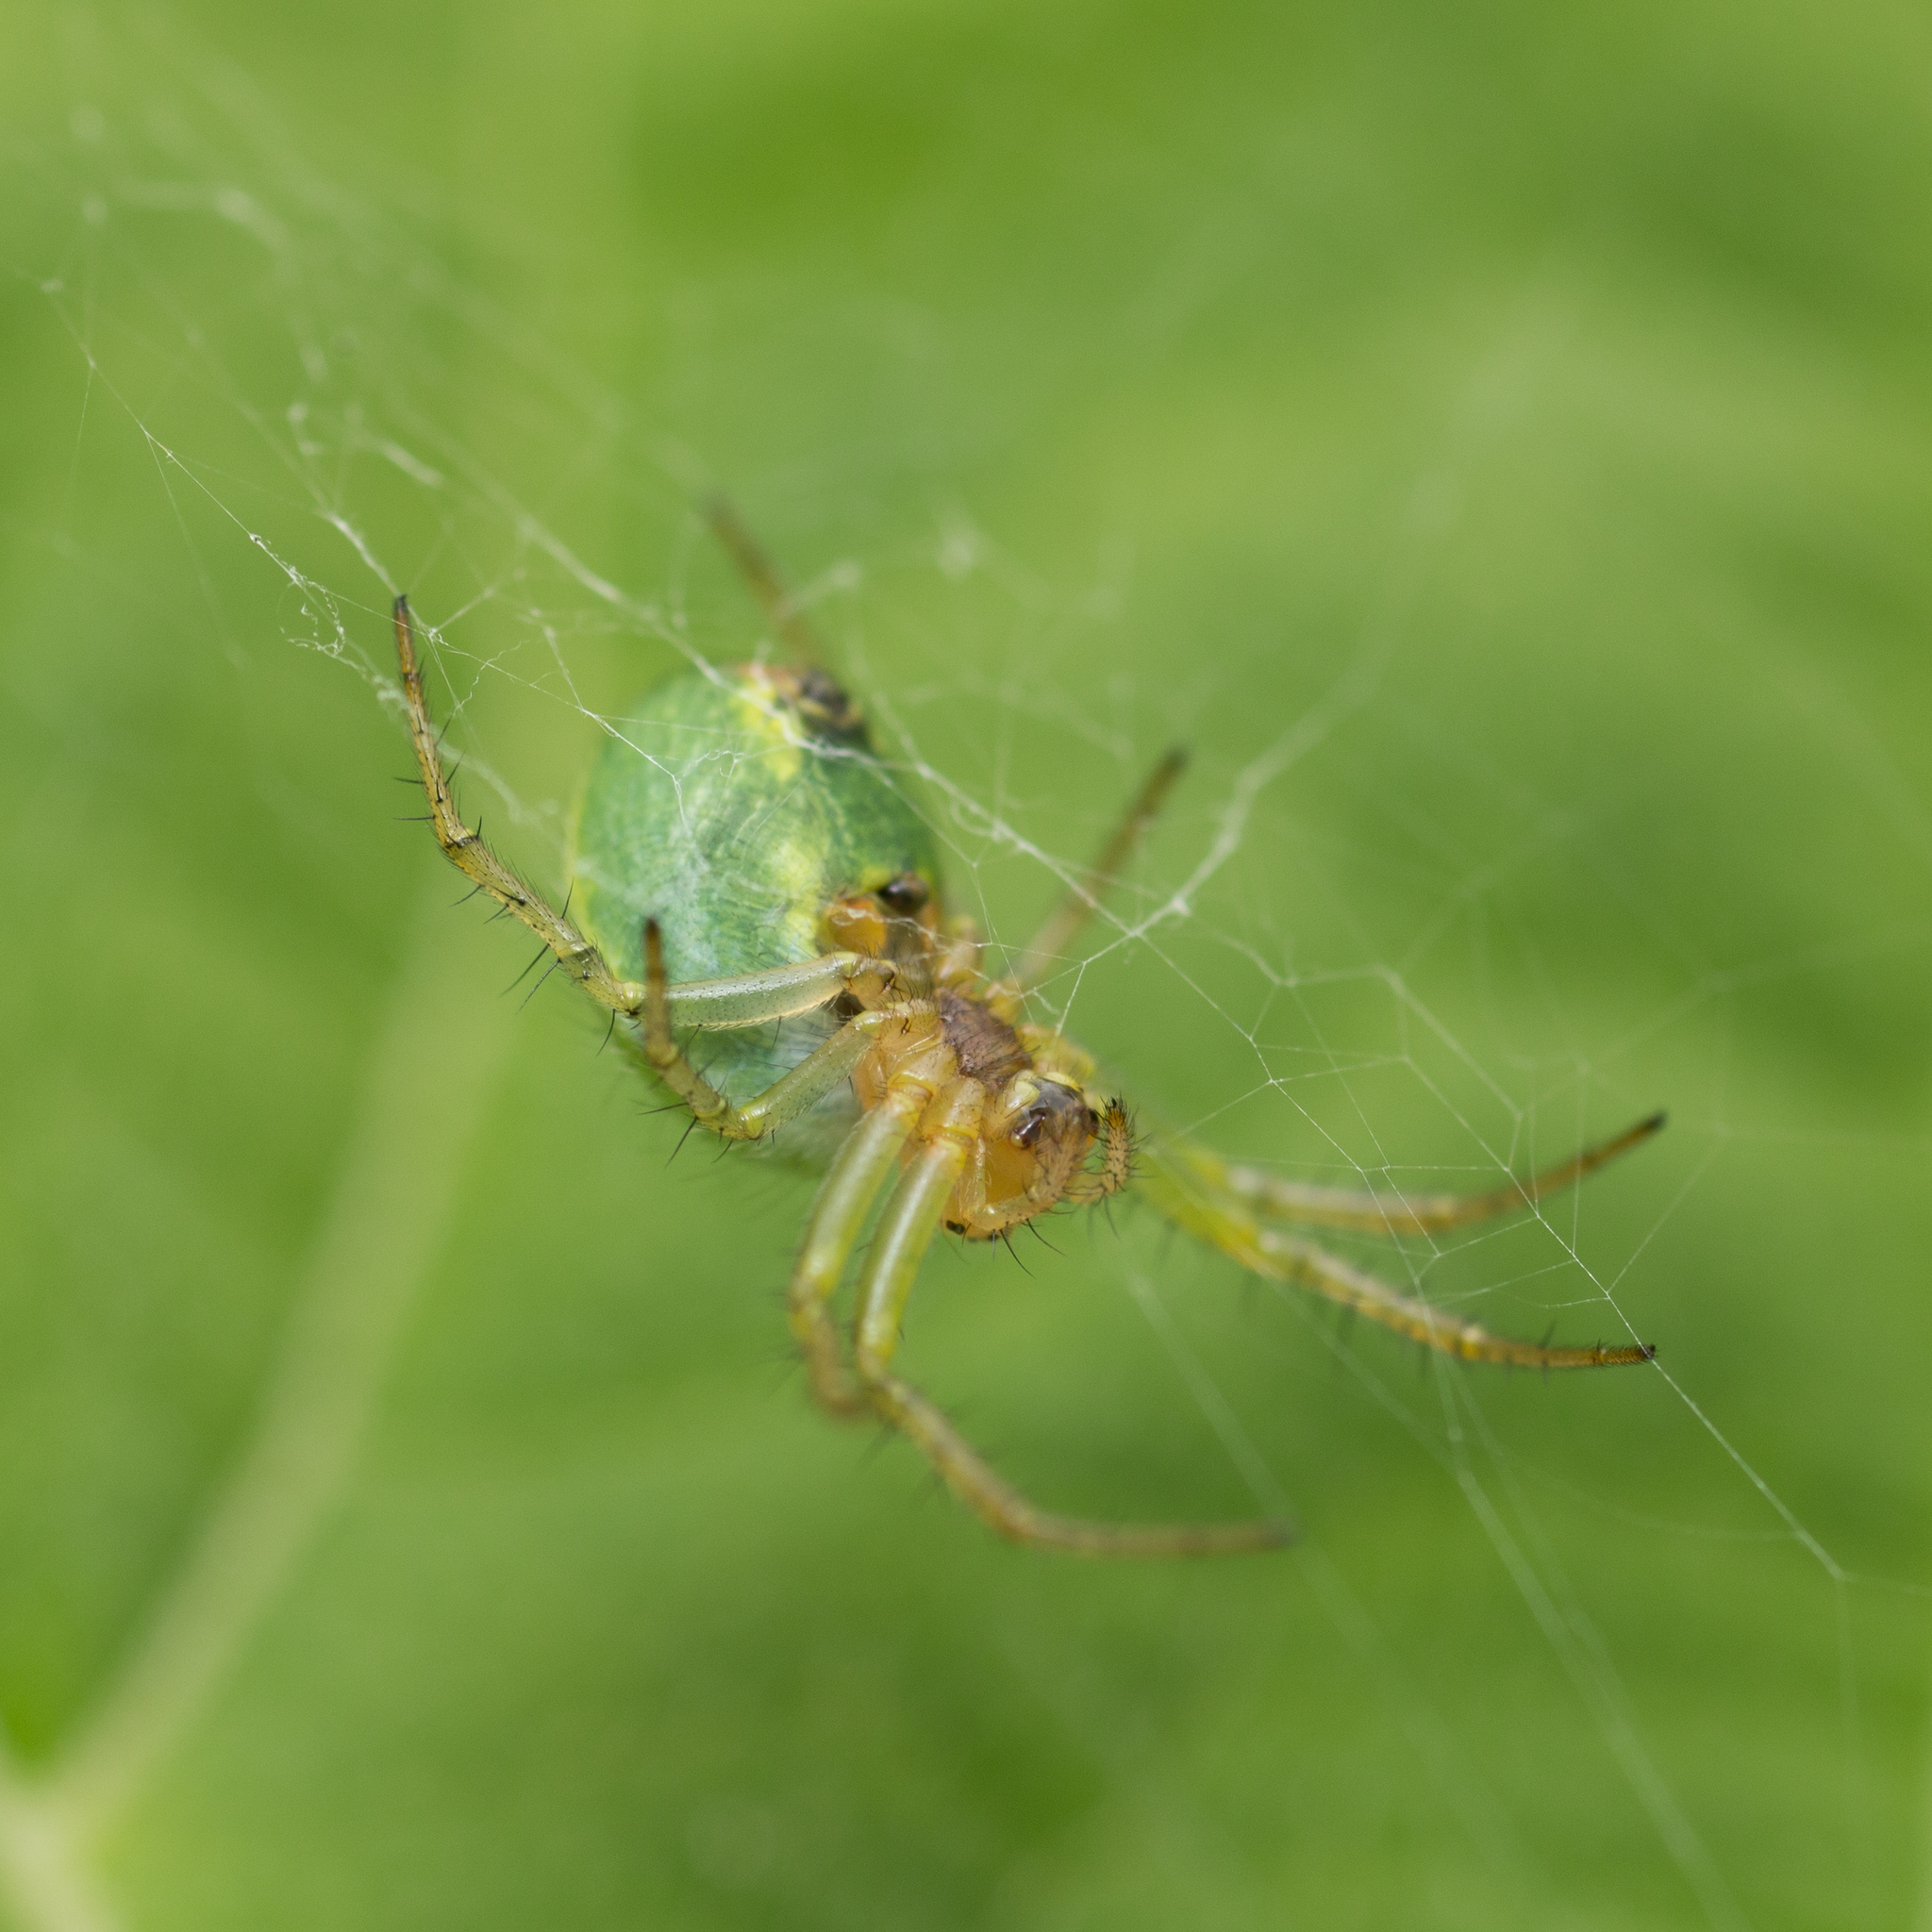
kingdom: Animalia
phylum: Arthropoda
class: Arachnida
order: Araneae
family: Araneidae
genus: Araniella
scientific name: Araniella cucurbitina
